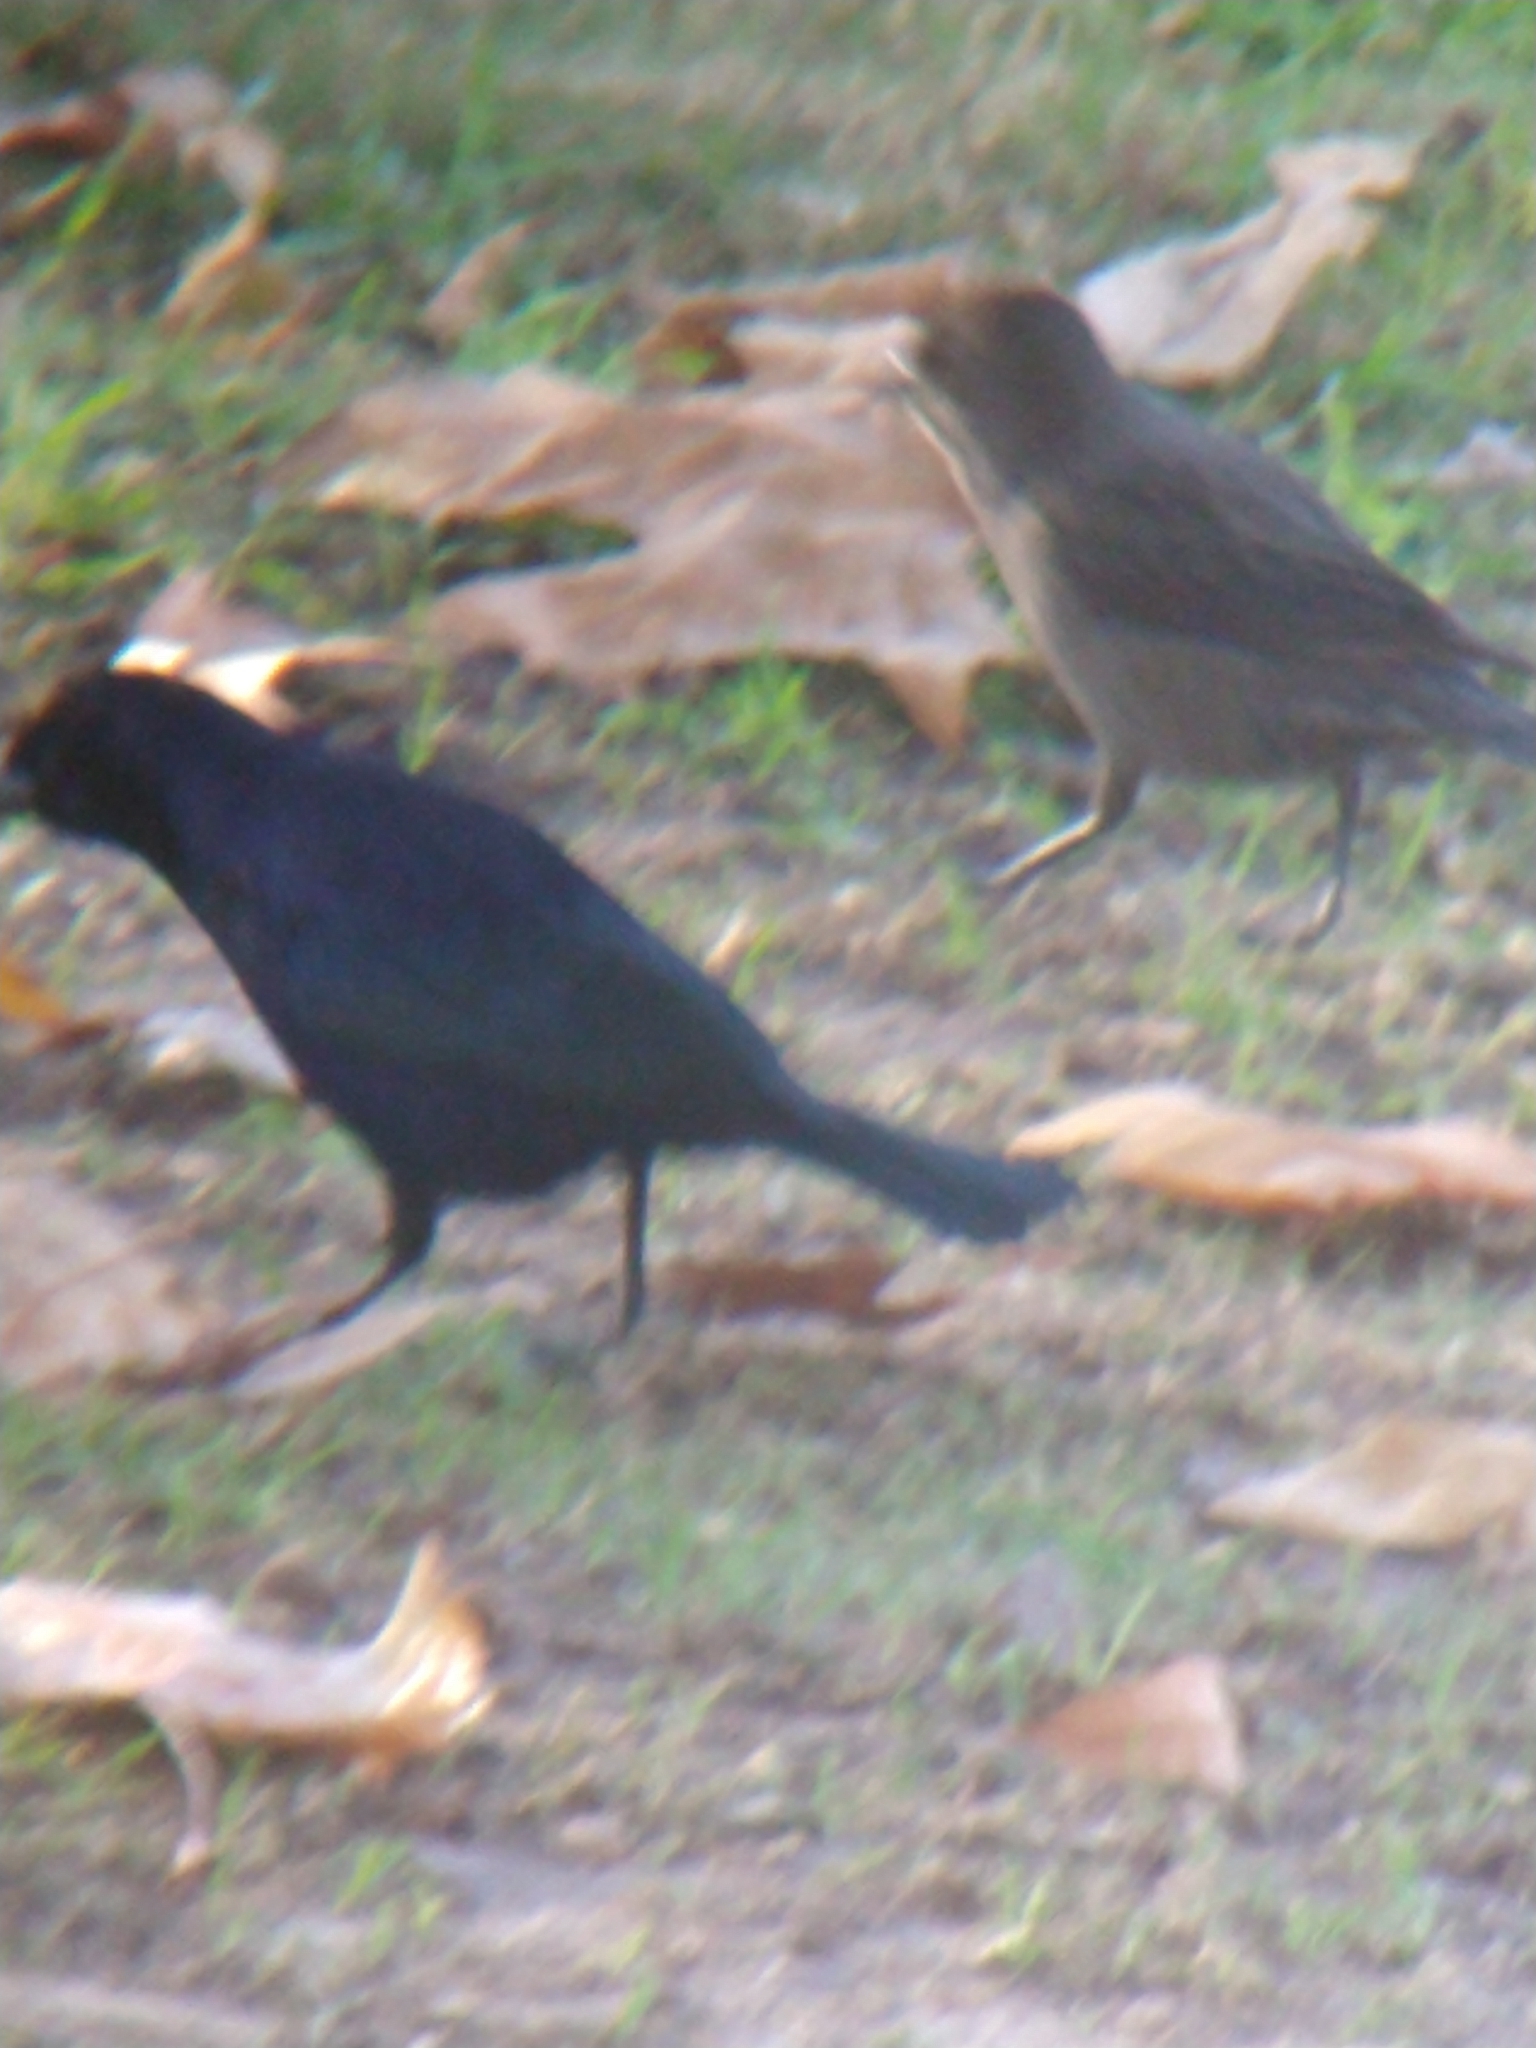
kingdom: Animalia
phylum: Chordata
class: Aves
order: Passeriformes
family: Icteridae
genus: Molothrus
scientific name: Molothrus bonariensis
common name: Shiny cowbird
